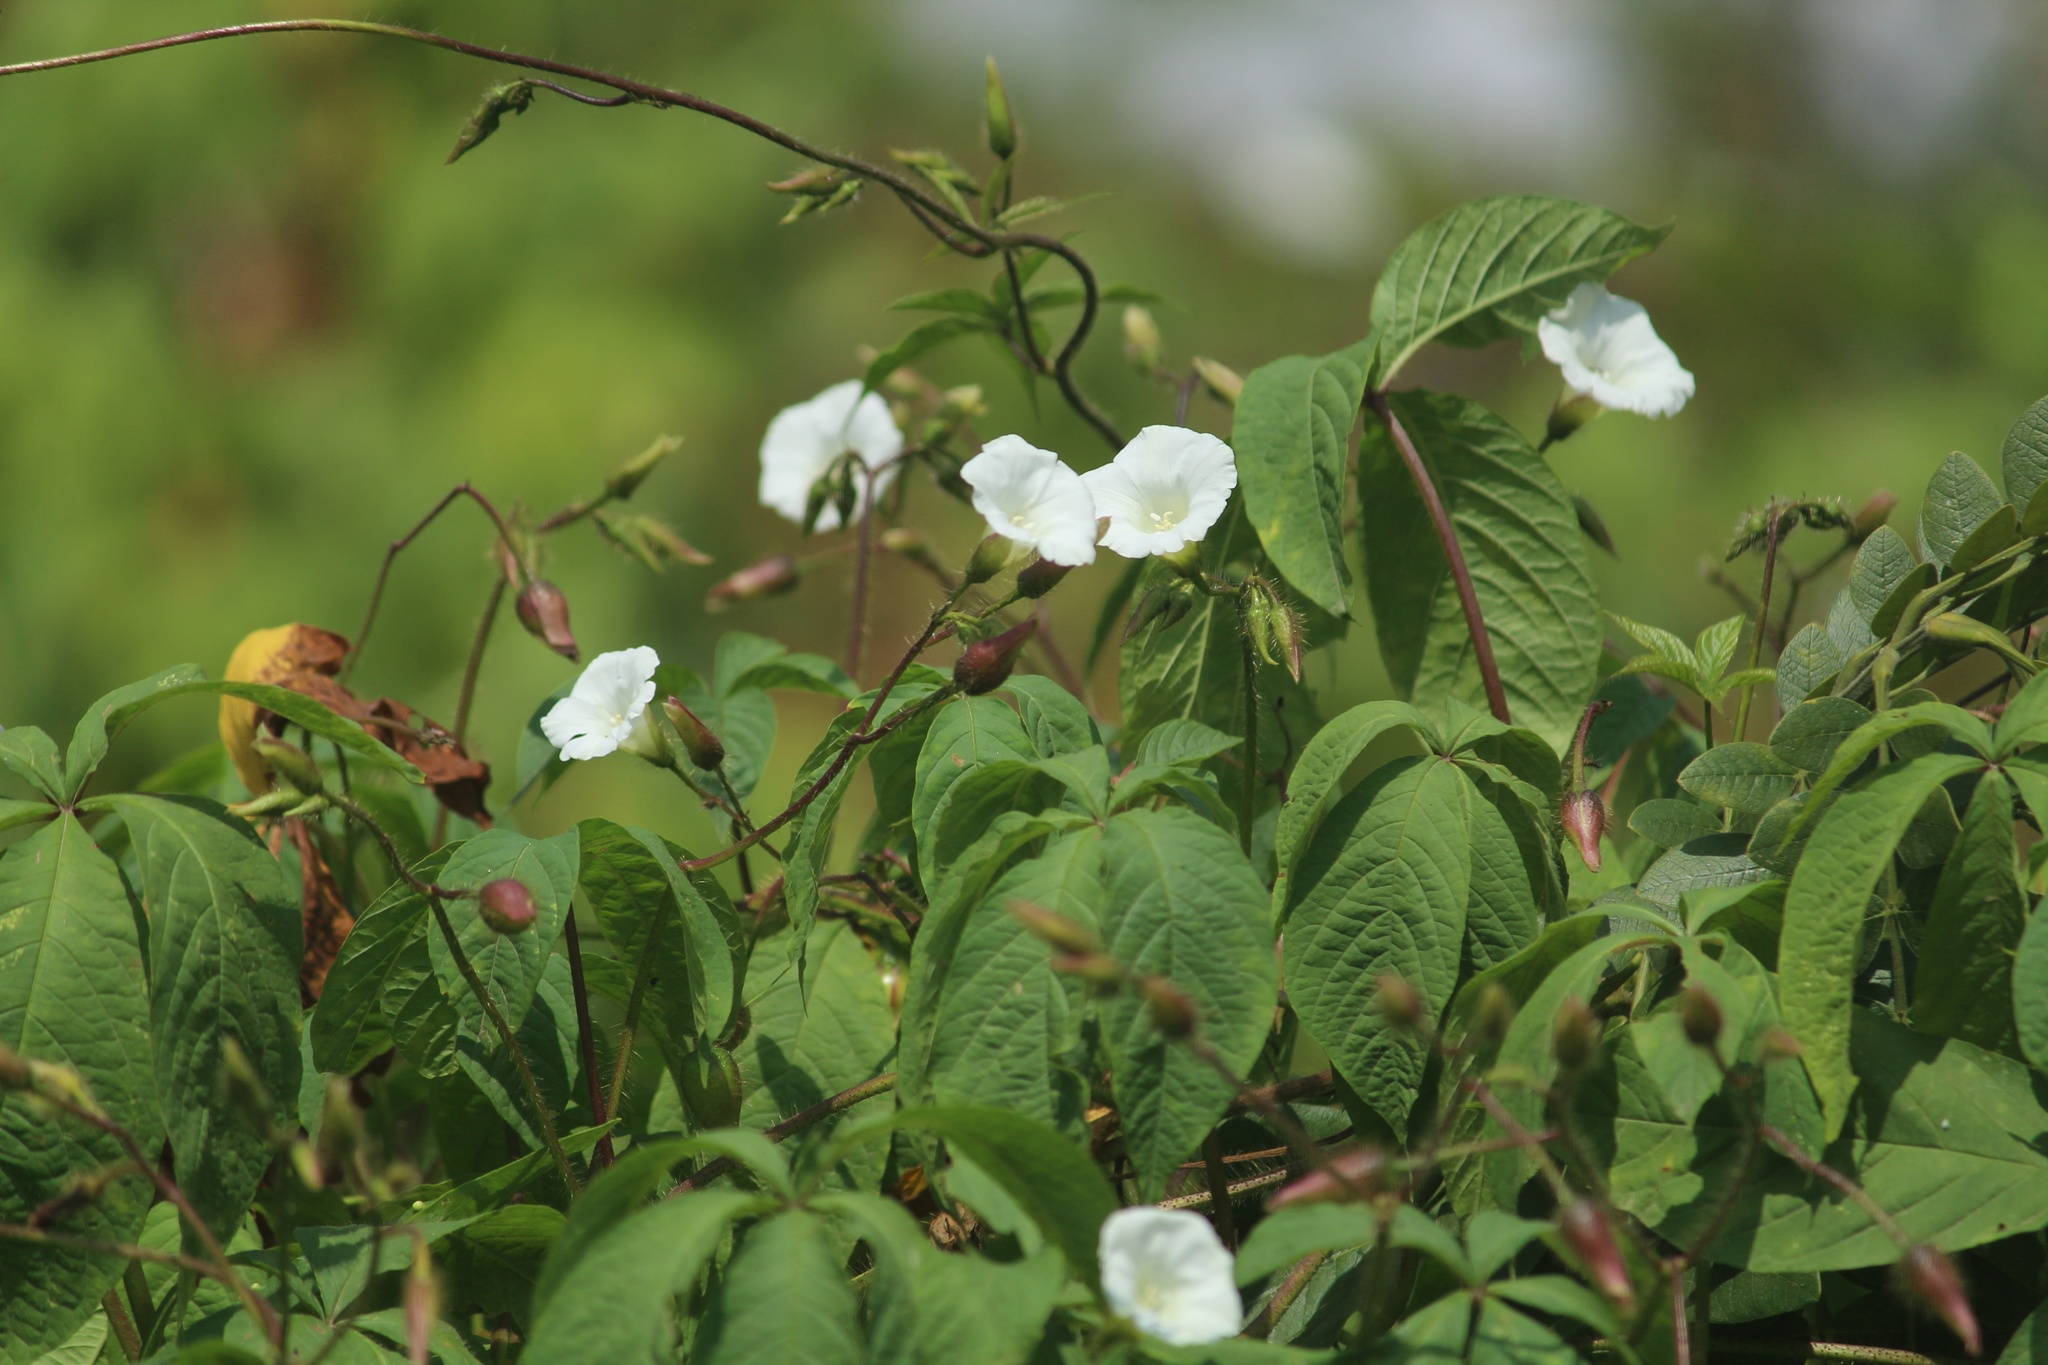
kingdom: Plantae
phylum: Tracheophyta
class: Magnoliopsida
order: Solanales
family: Convolvulaceae
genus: Distimake
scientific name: Distimake aegyptius
